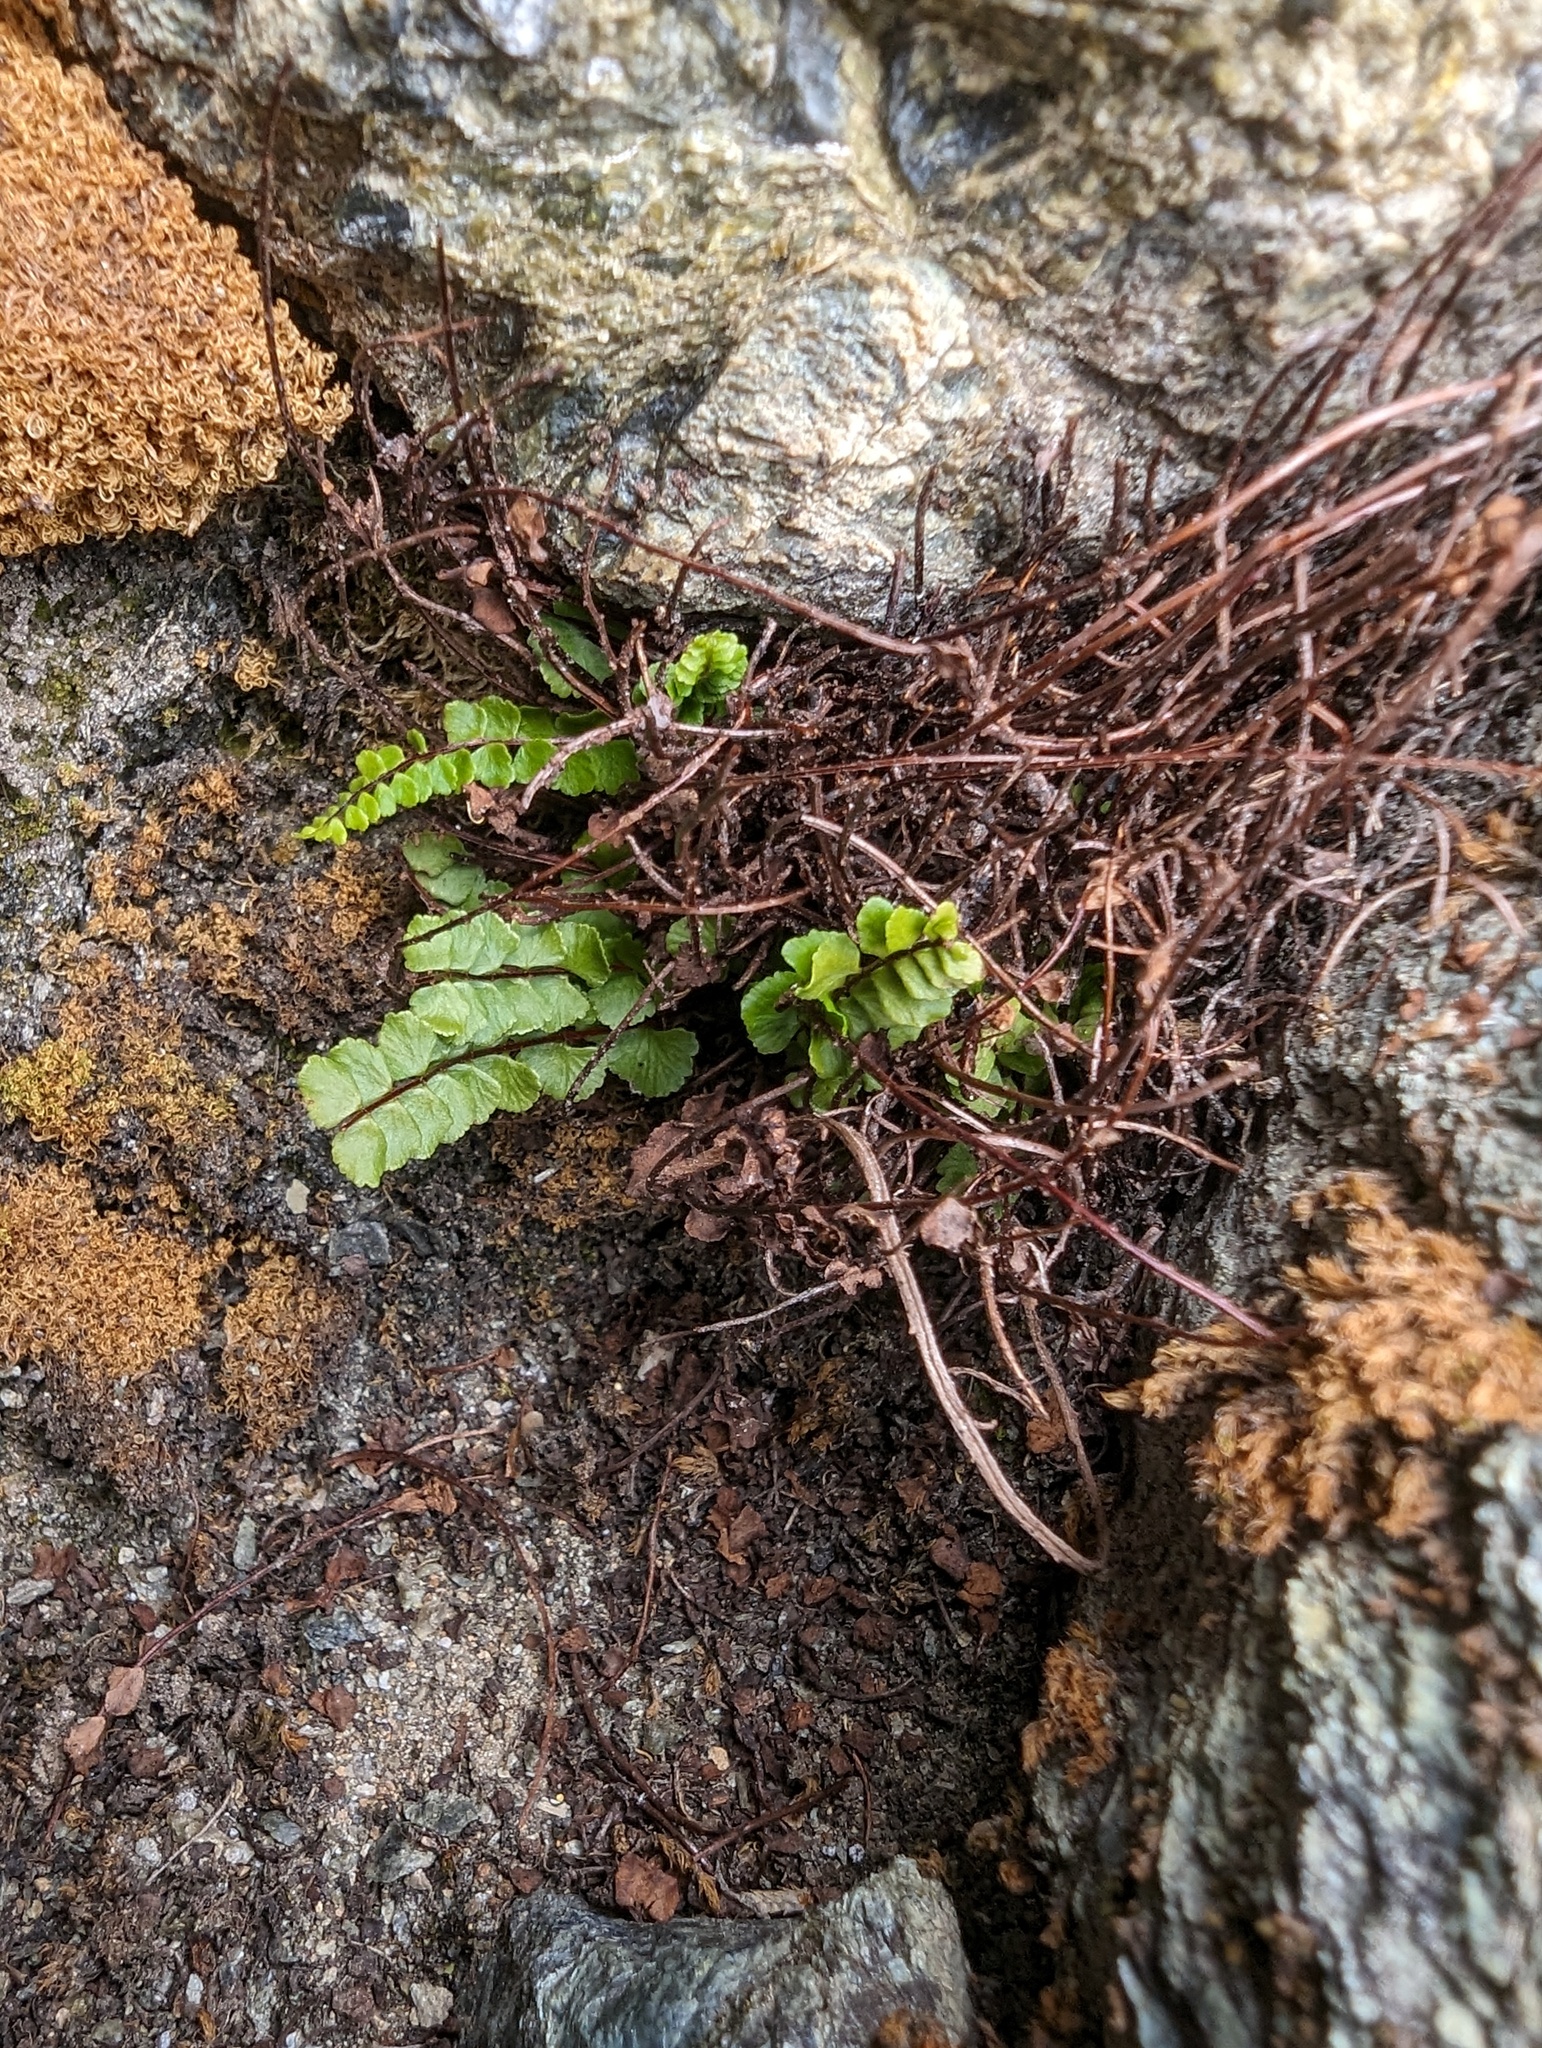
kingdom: Plantae
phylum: Tracheophyta
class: Polypodiopsida
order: Polypodiales
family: Aspleniaceae
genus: Asplenium
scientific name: Asplenium trichomanes
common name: Maidenhair spleenwort
